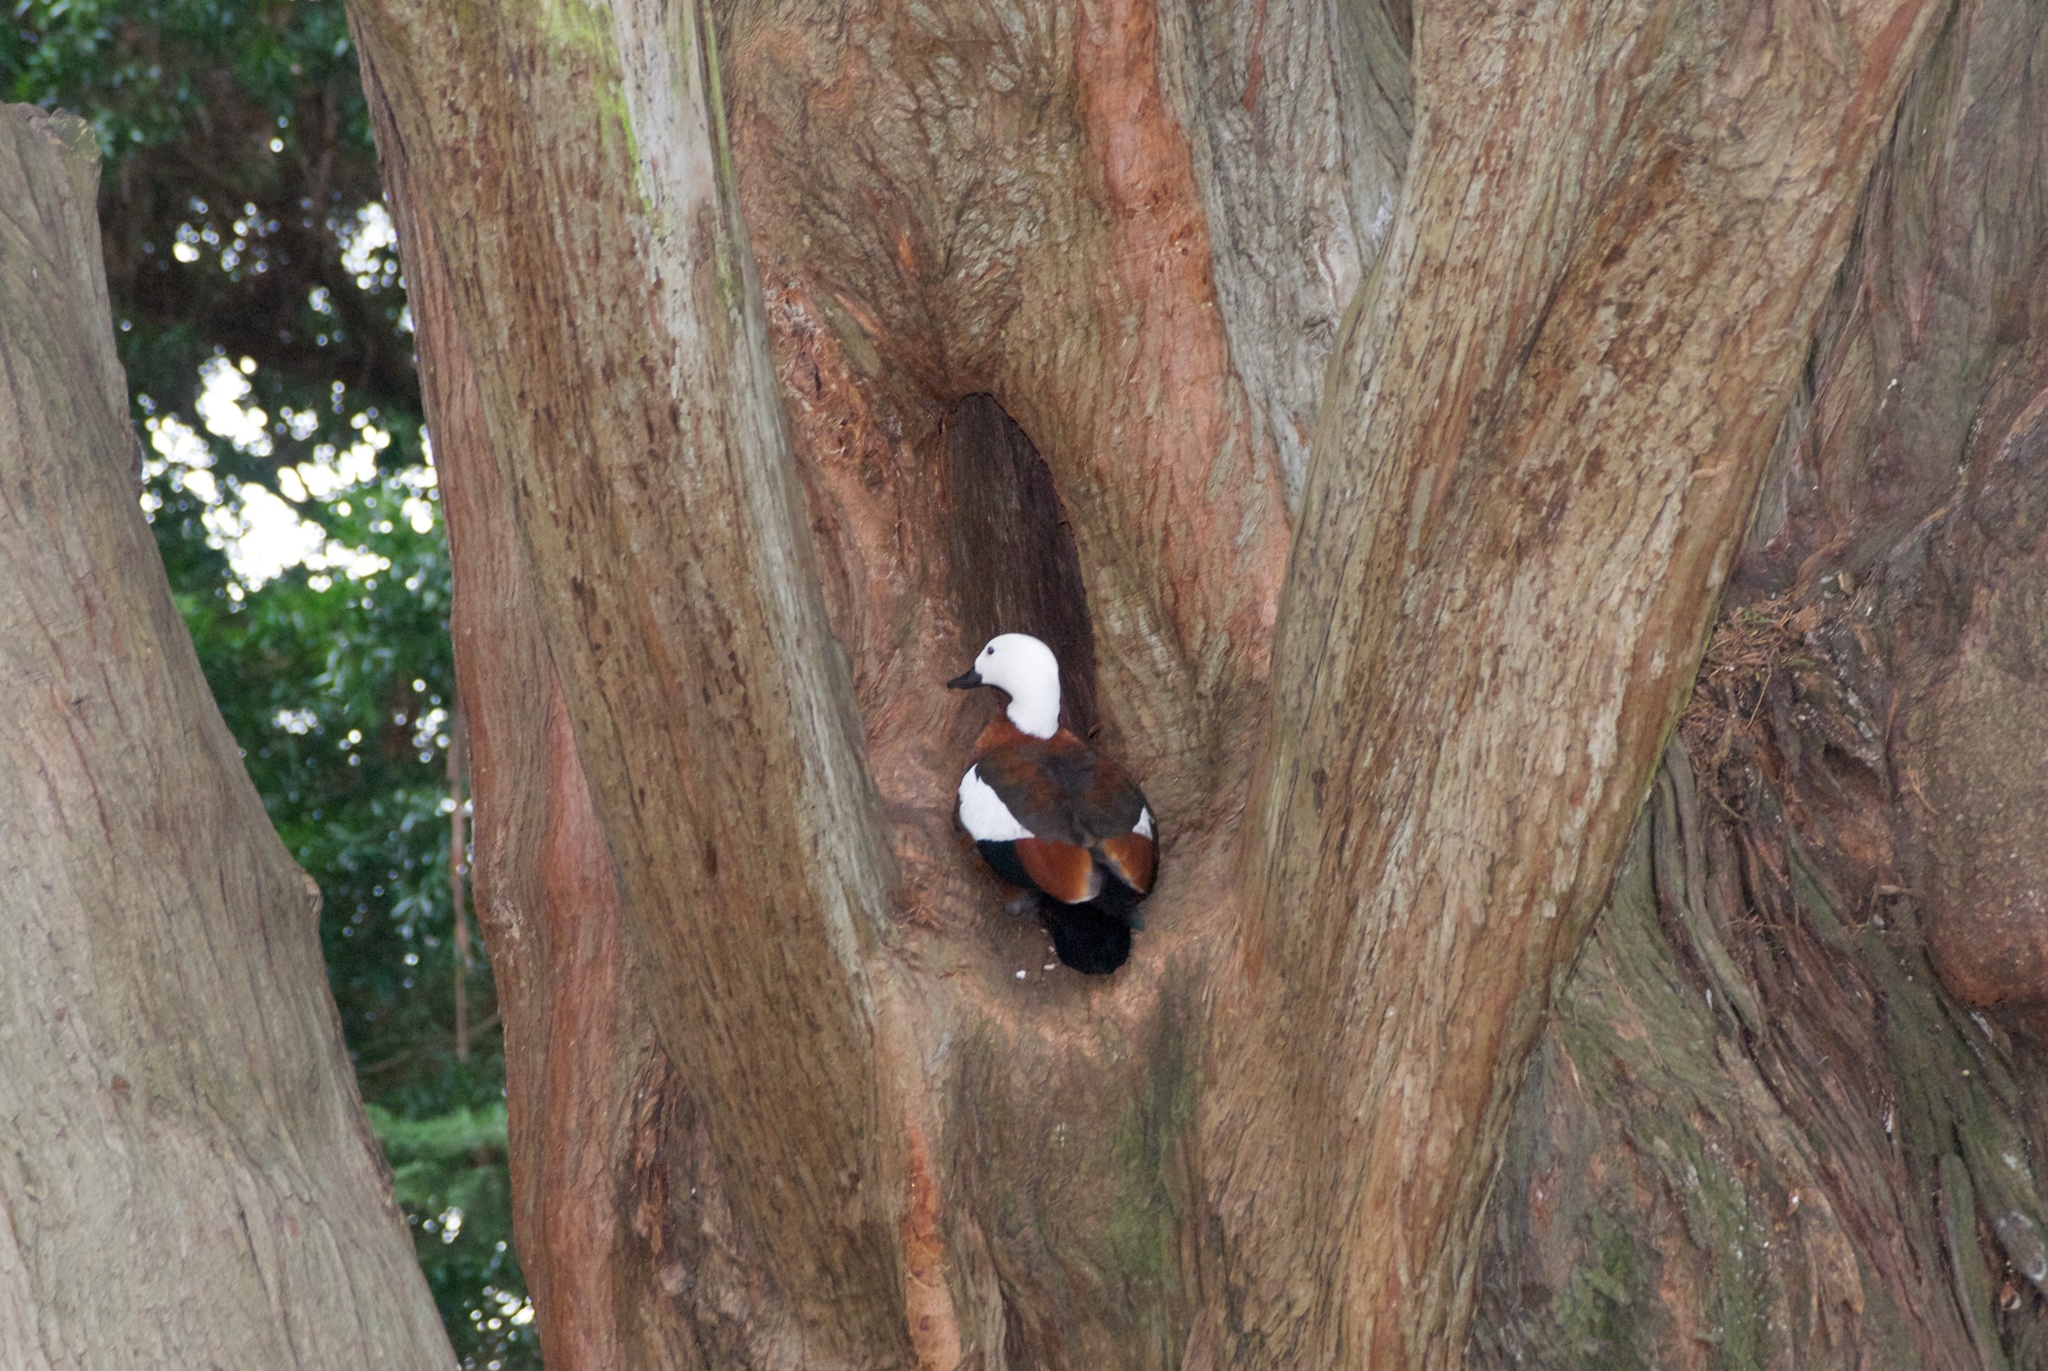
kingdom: Animalia
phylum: Chordata
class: Aves
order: Anseriformes
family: Anatidae
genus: Tadorna
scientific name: Tadorna variegata
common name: Paradise shelduck
